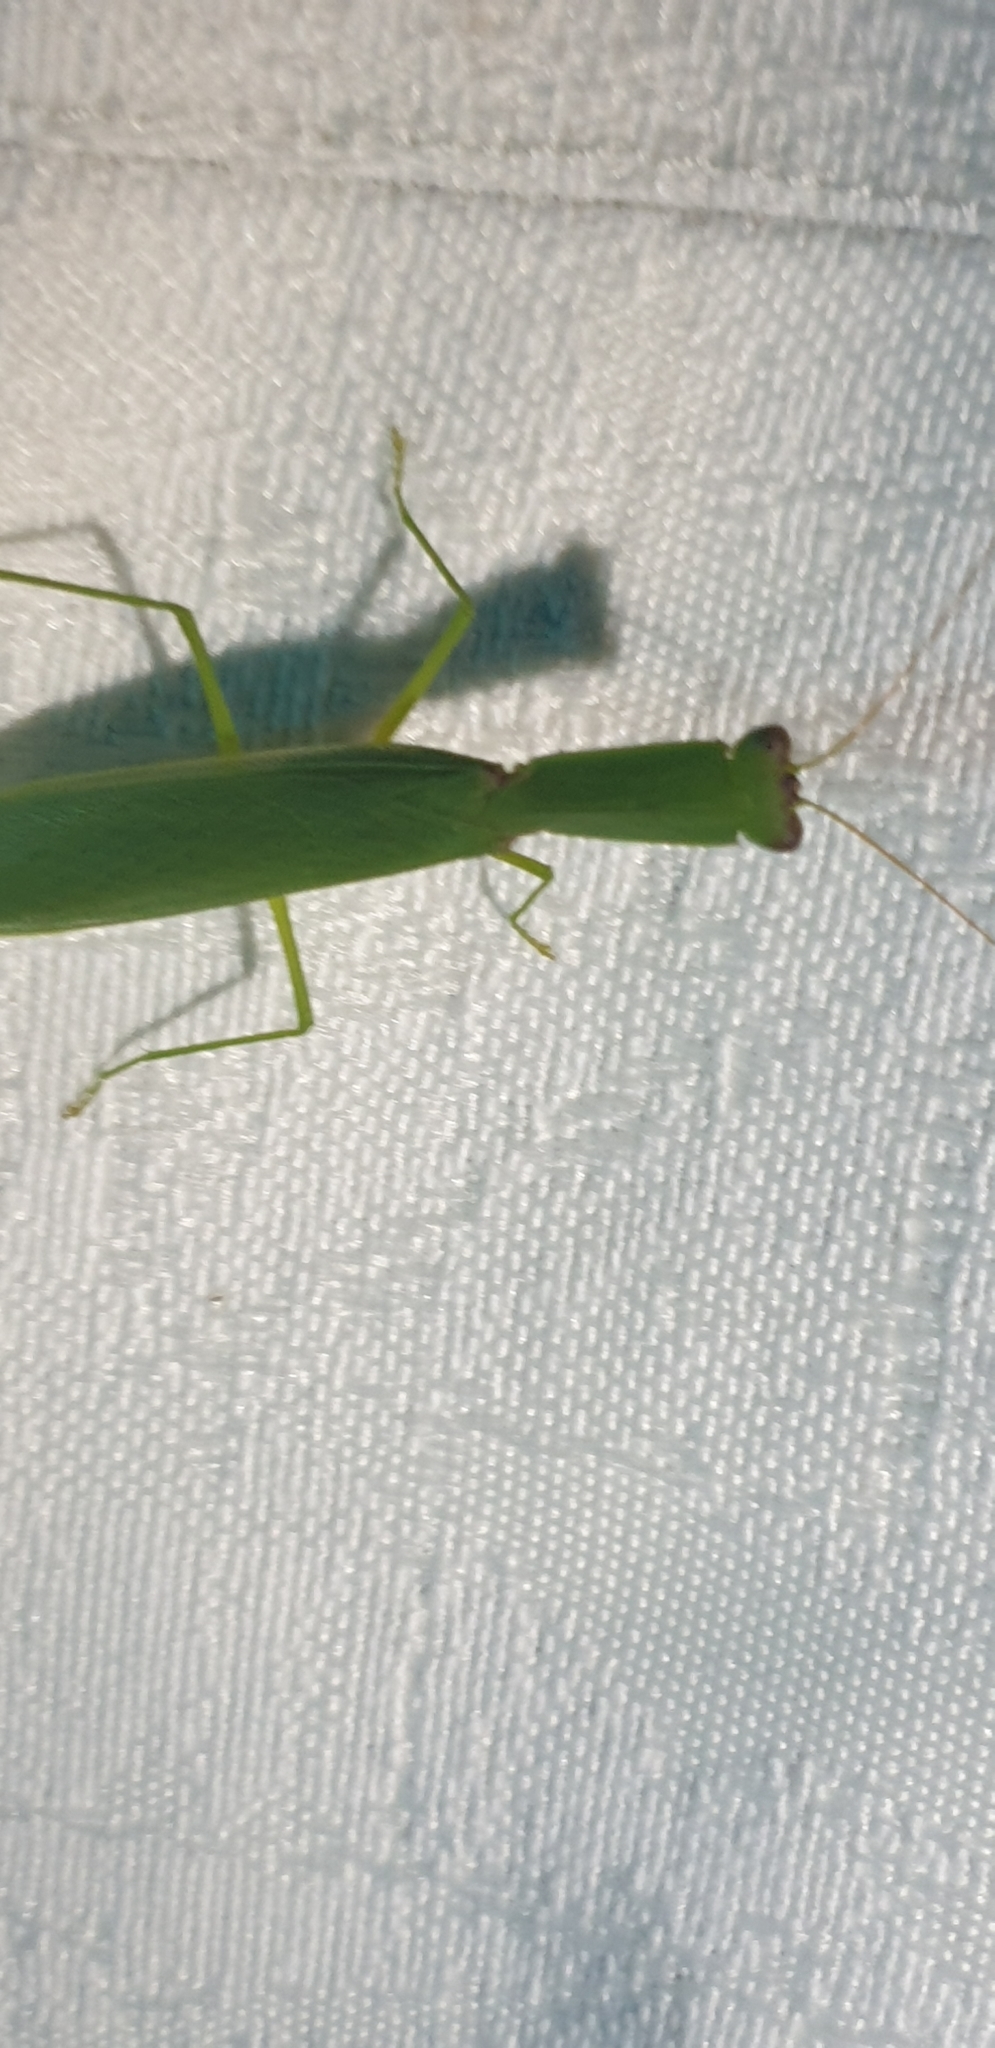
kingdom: Animalia
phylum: Arthropoda
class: Insecta
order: Mantodea
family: Mantidae
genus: Orthodera
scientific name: Orthodera ministralis
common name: Mantis
